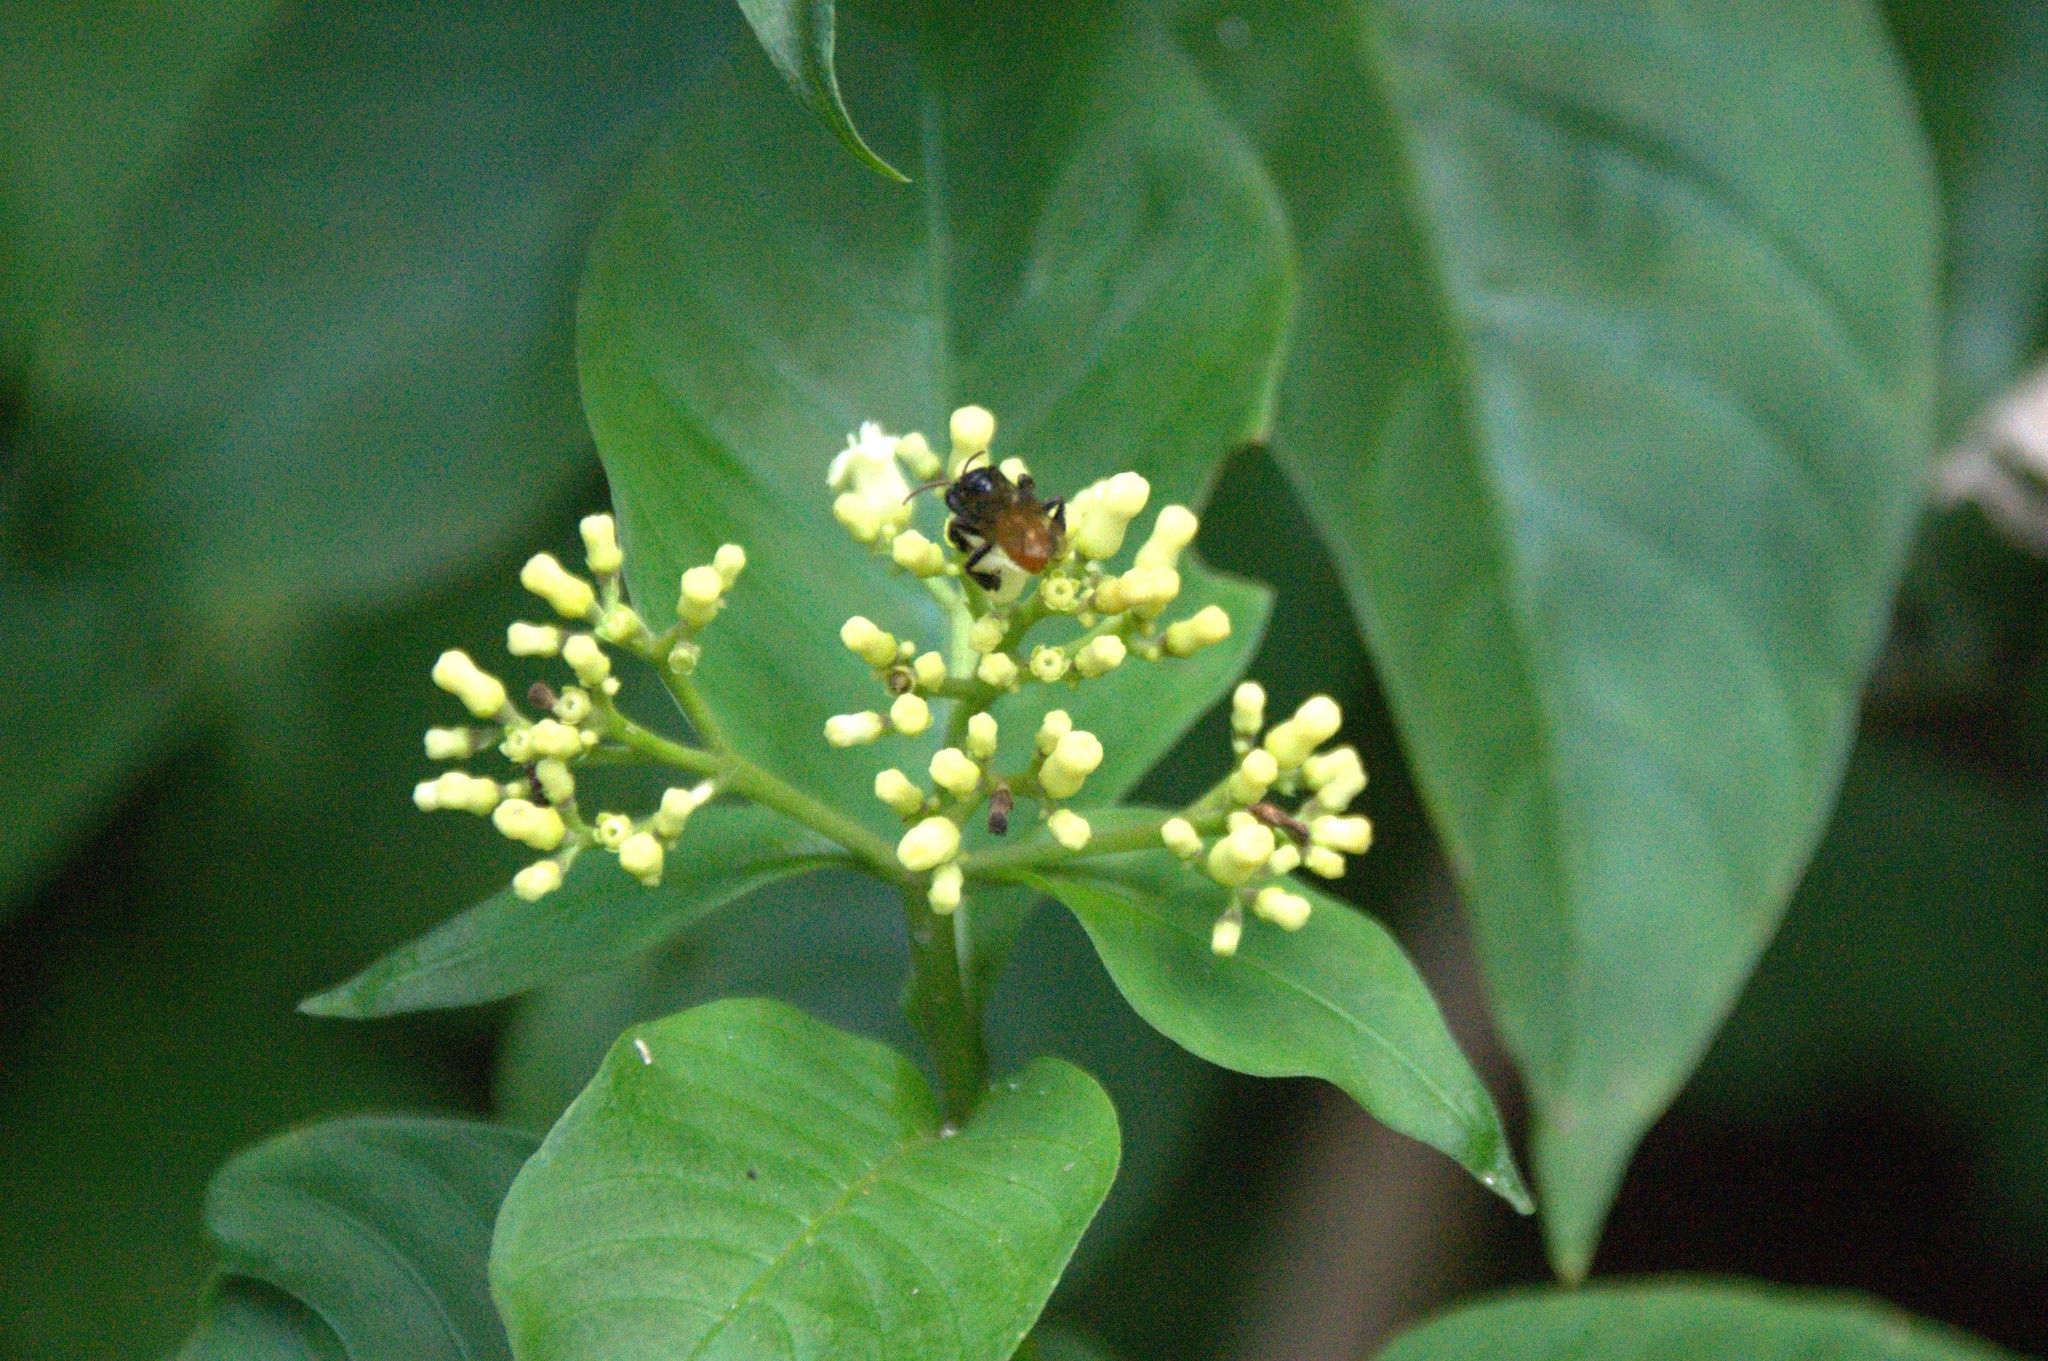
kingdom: Animalia
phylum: Arthropoda
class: Insecta
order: Hymenoptera
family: Apidae
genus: Trigona
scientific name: Trigona fulviventris
